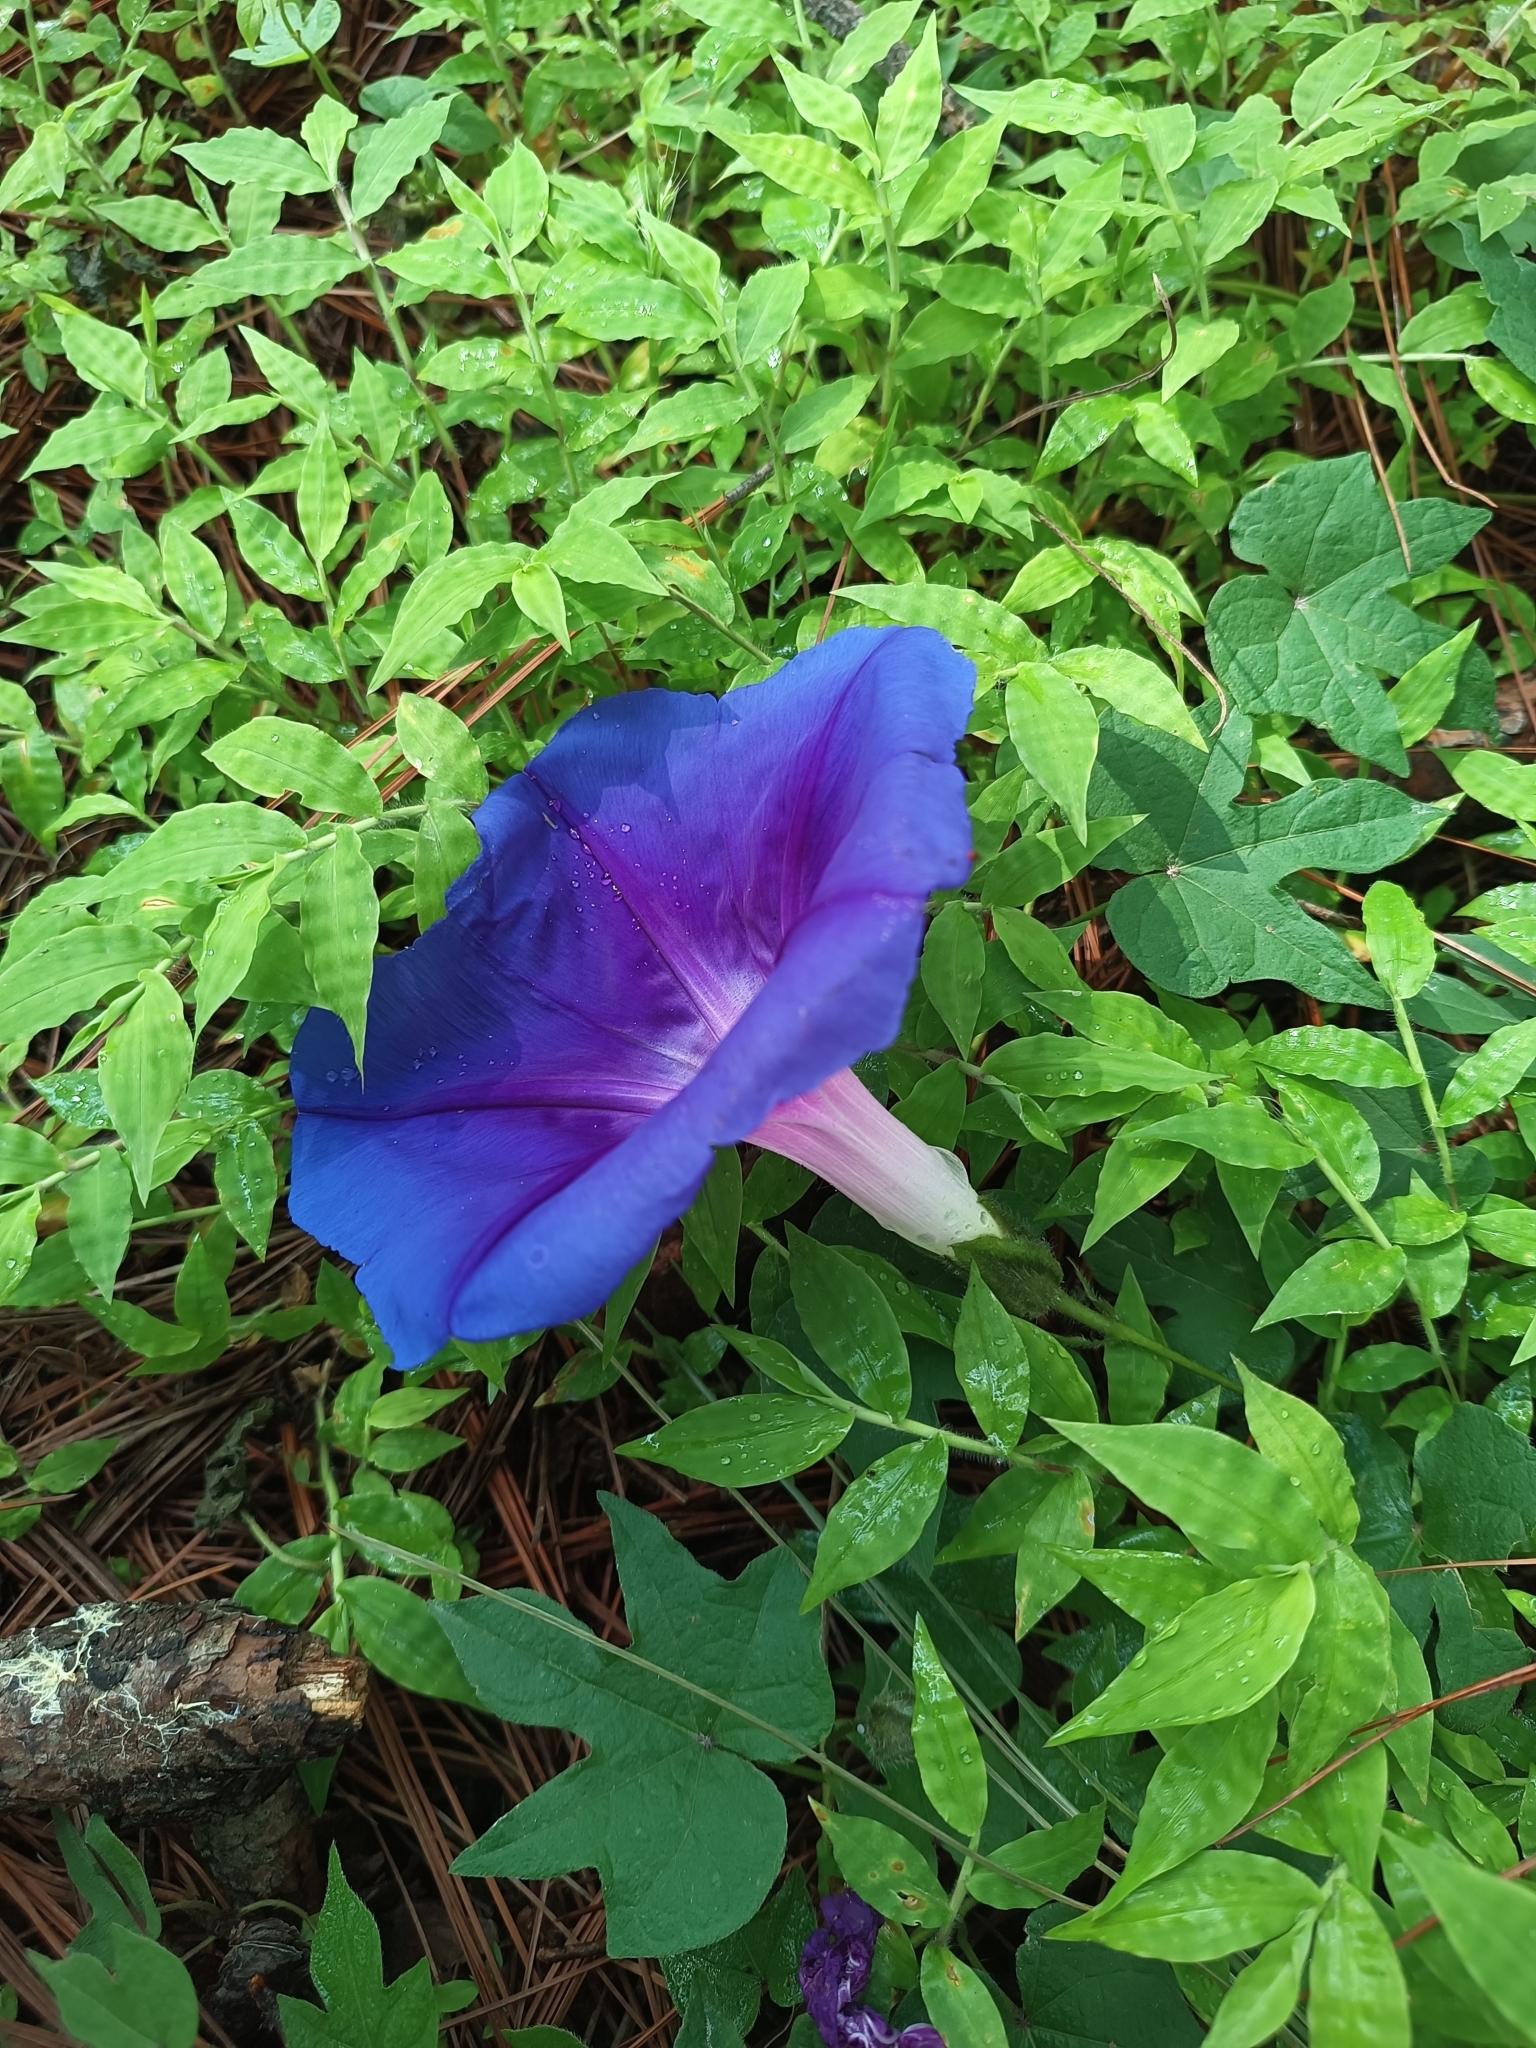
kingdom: Plantae
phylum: Tracheophyta
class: Magnoliopsida
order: Solanales
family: Convolvulaceae
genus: Ipomoea
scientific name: Ipomoea laeta
